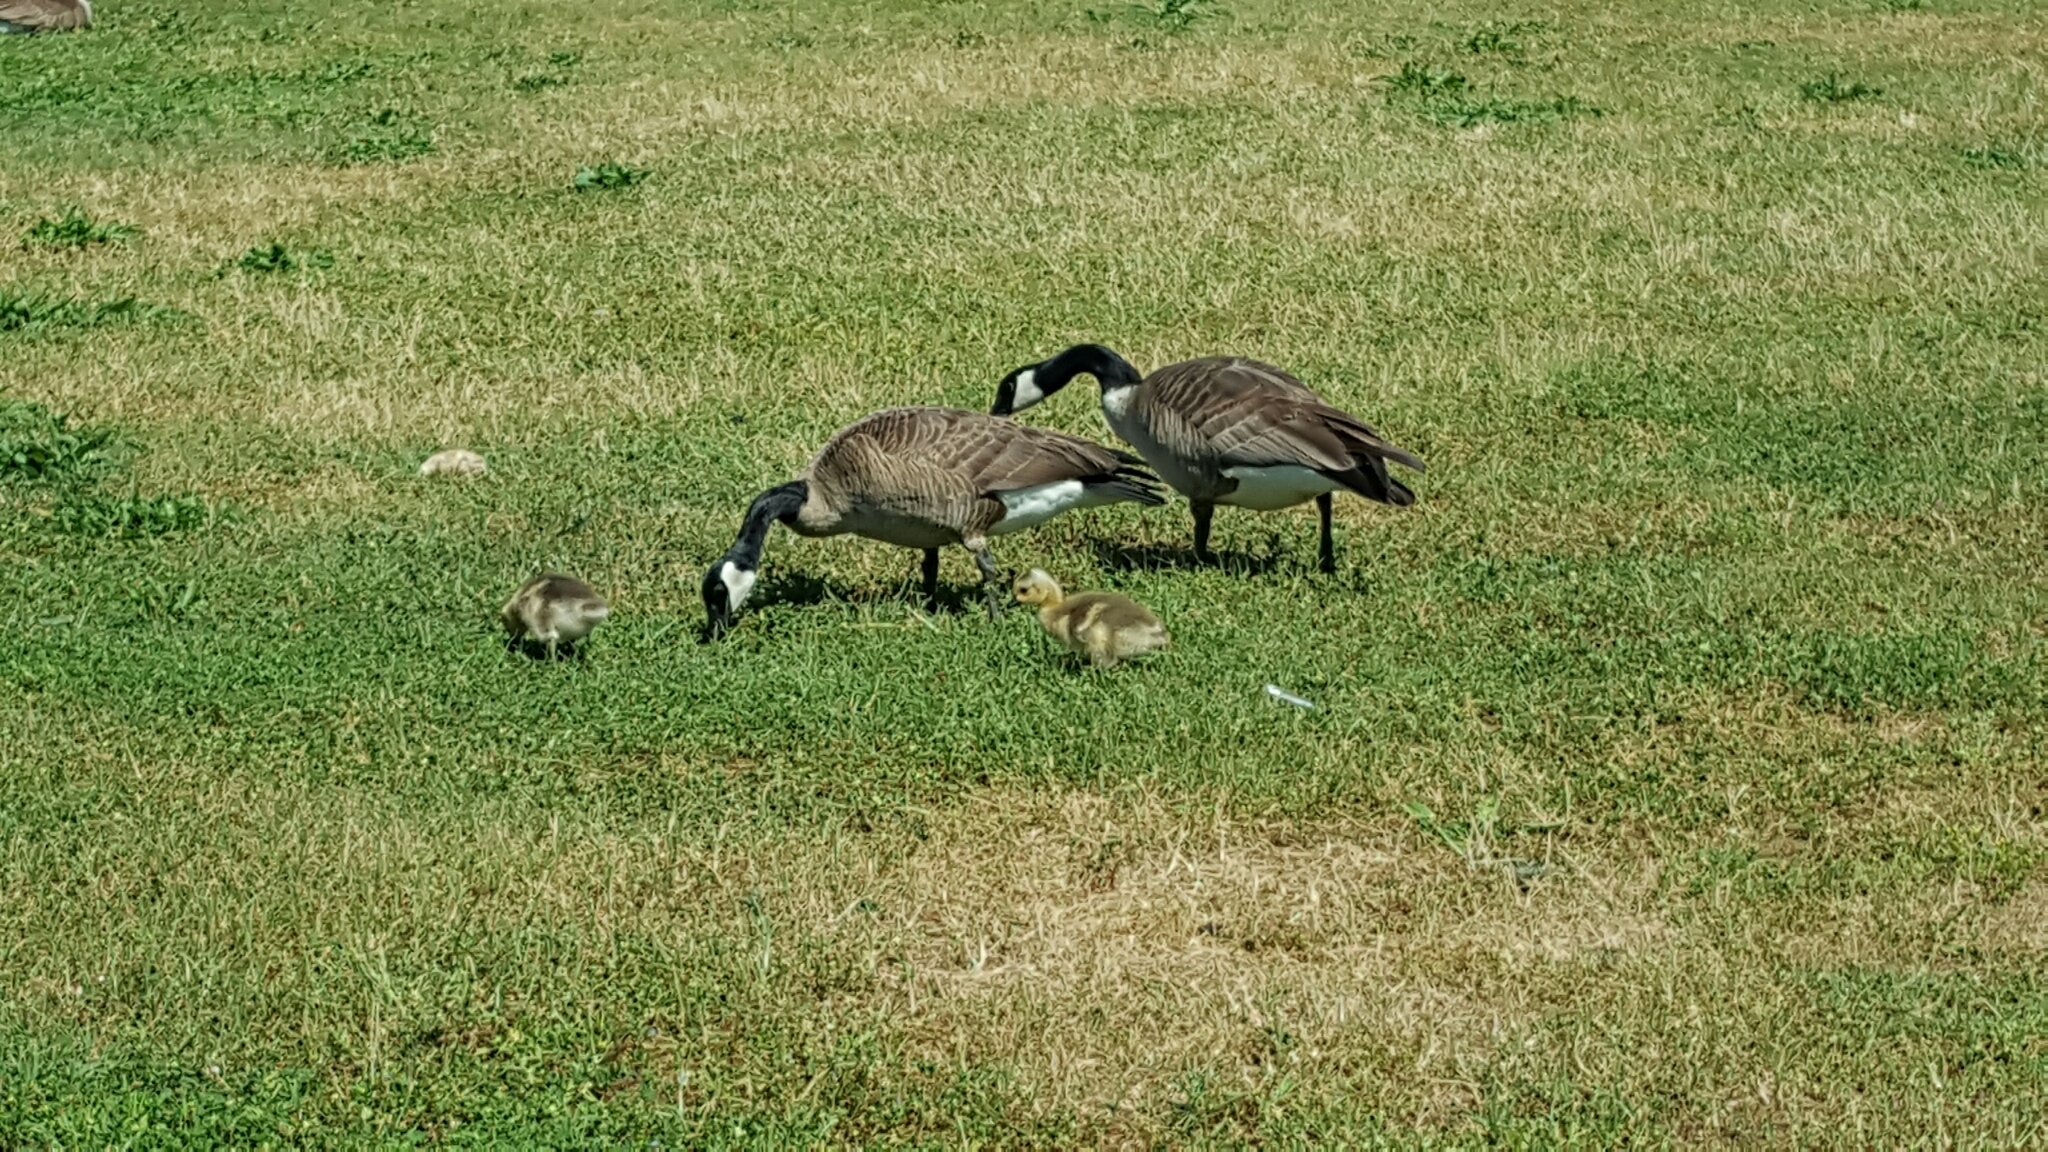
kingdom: Animalia
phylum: Chordata
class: Aves
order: Anseriformes
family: Anatidae
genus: Branta
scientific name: Branta canadensis
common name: Canada goose
